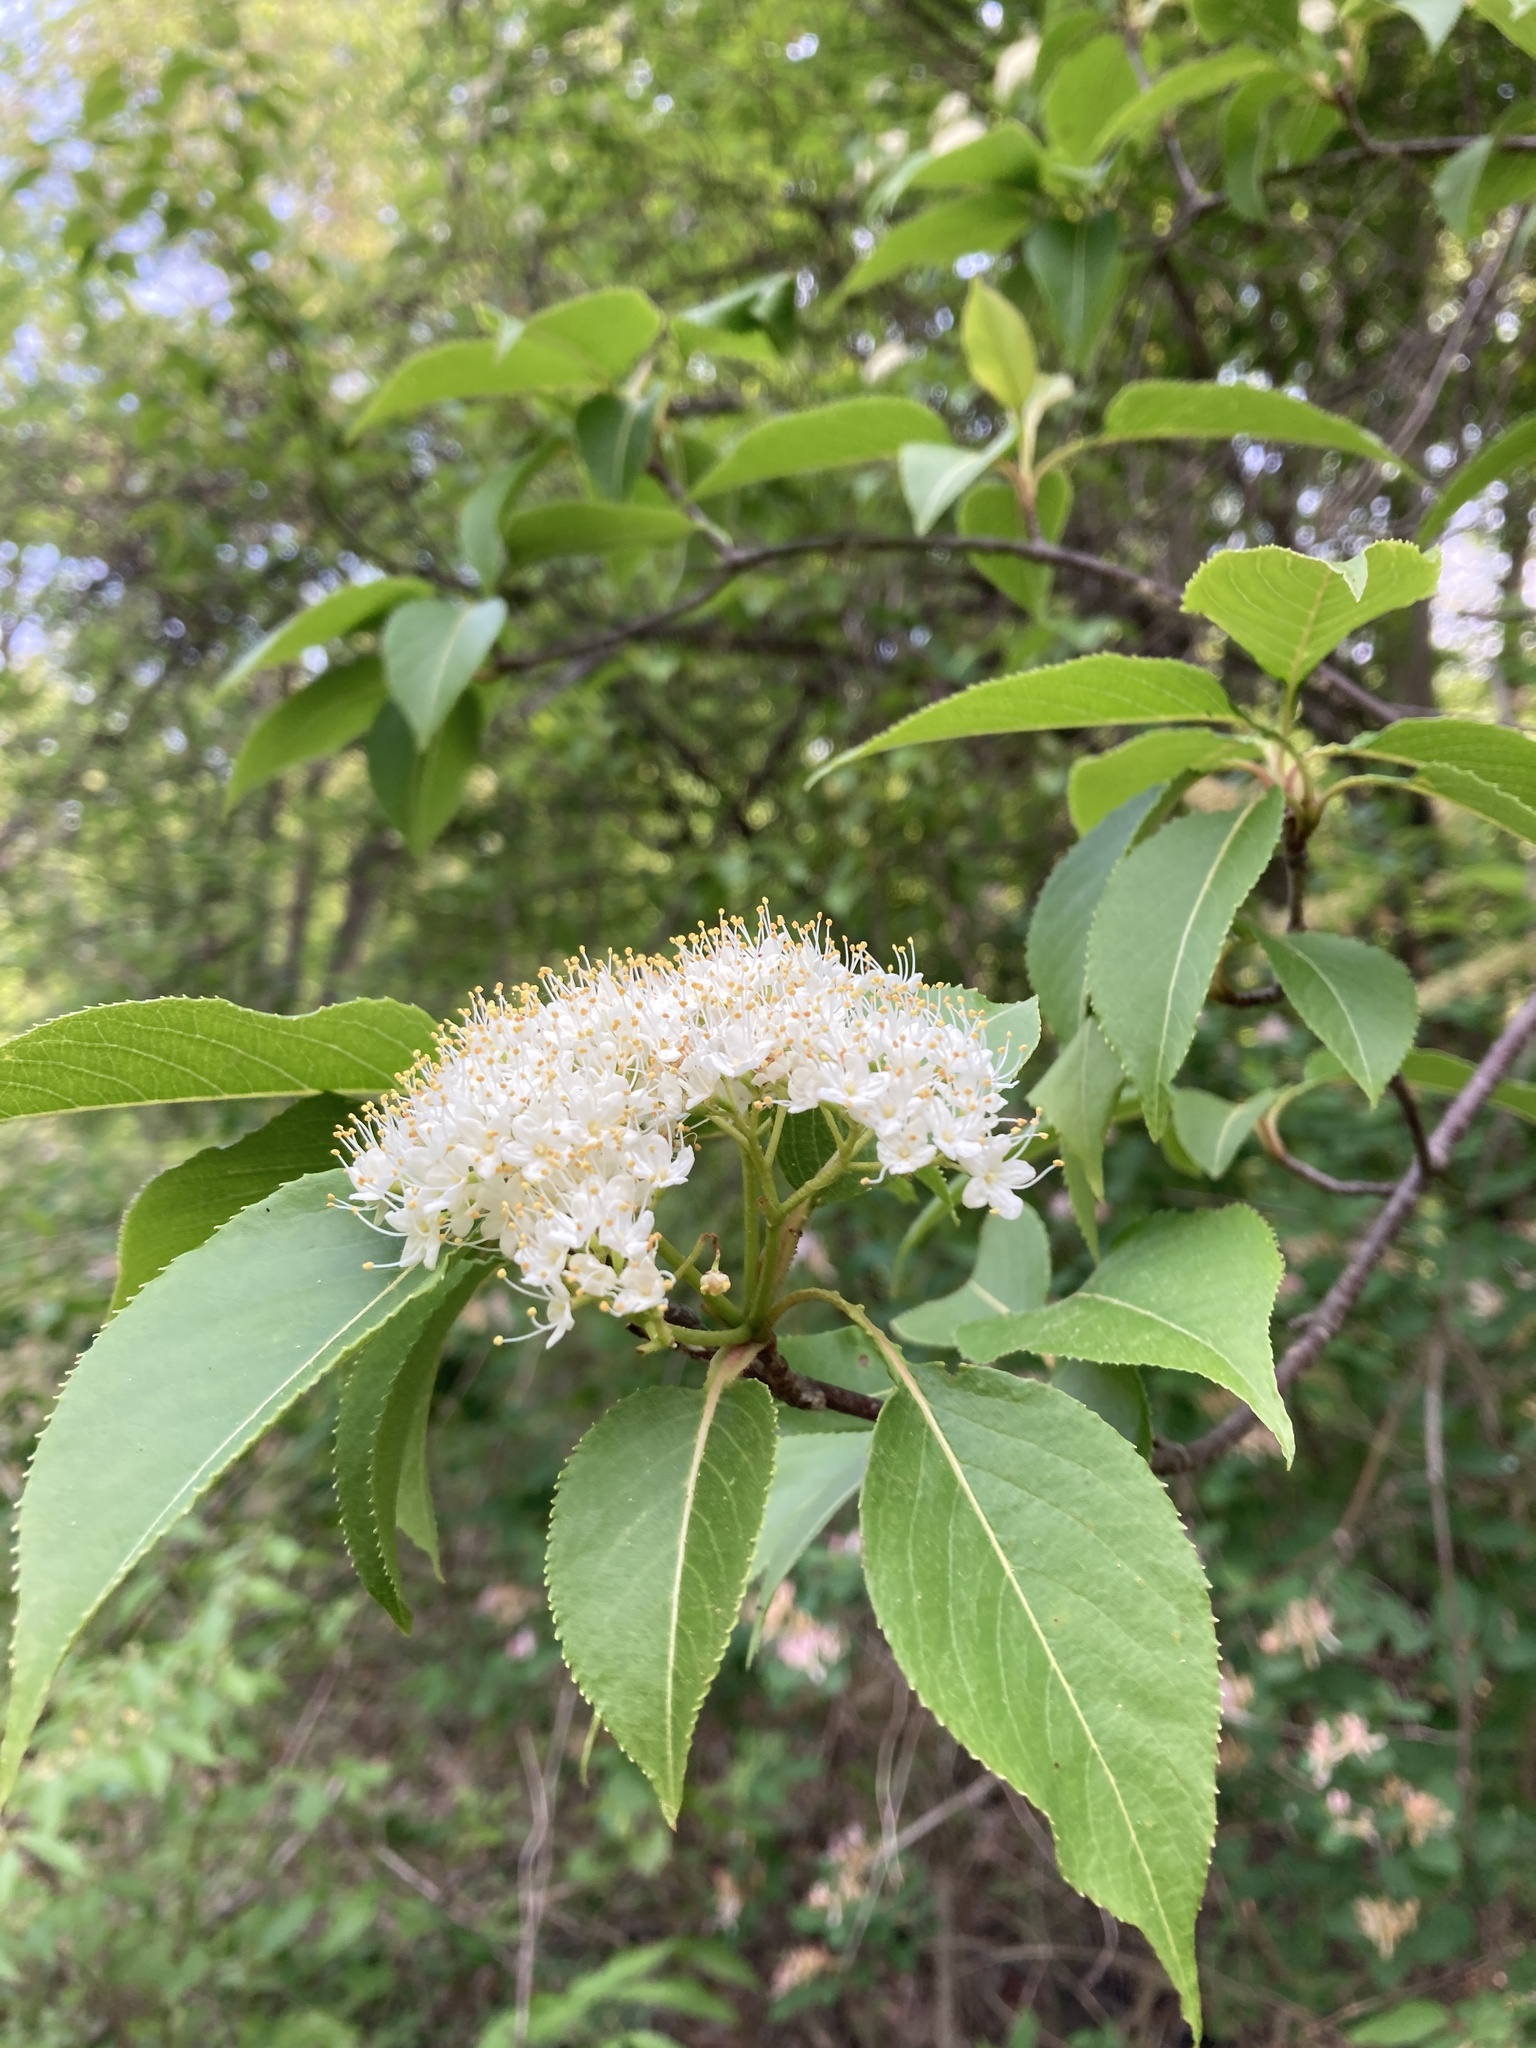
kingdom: Plantae
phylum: Tracheophyta
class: Magnoliopsida
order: Dipsacales
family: Viburnaceae
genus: Viburnum
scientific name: Viburnum lentago
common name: Black haw
